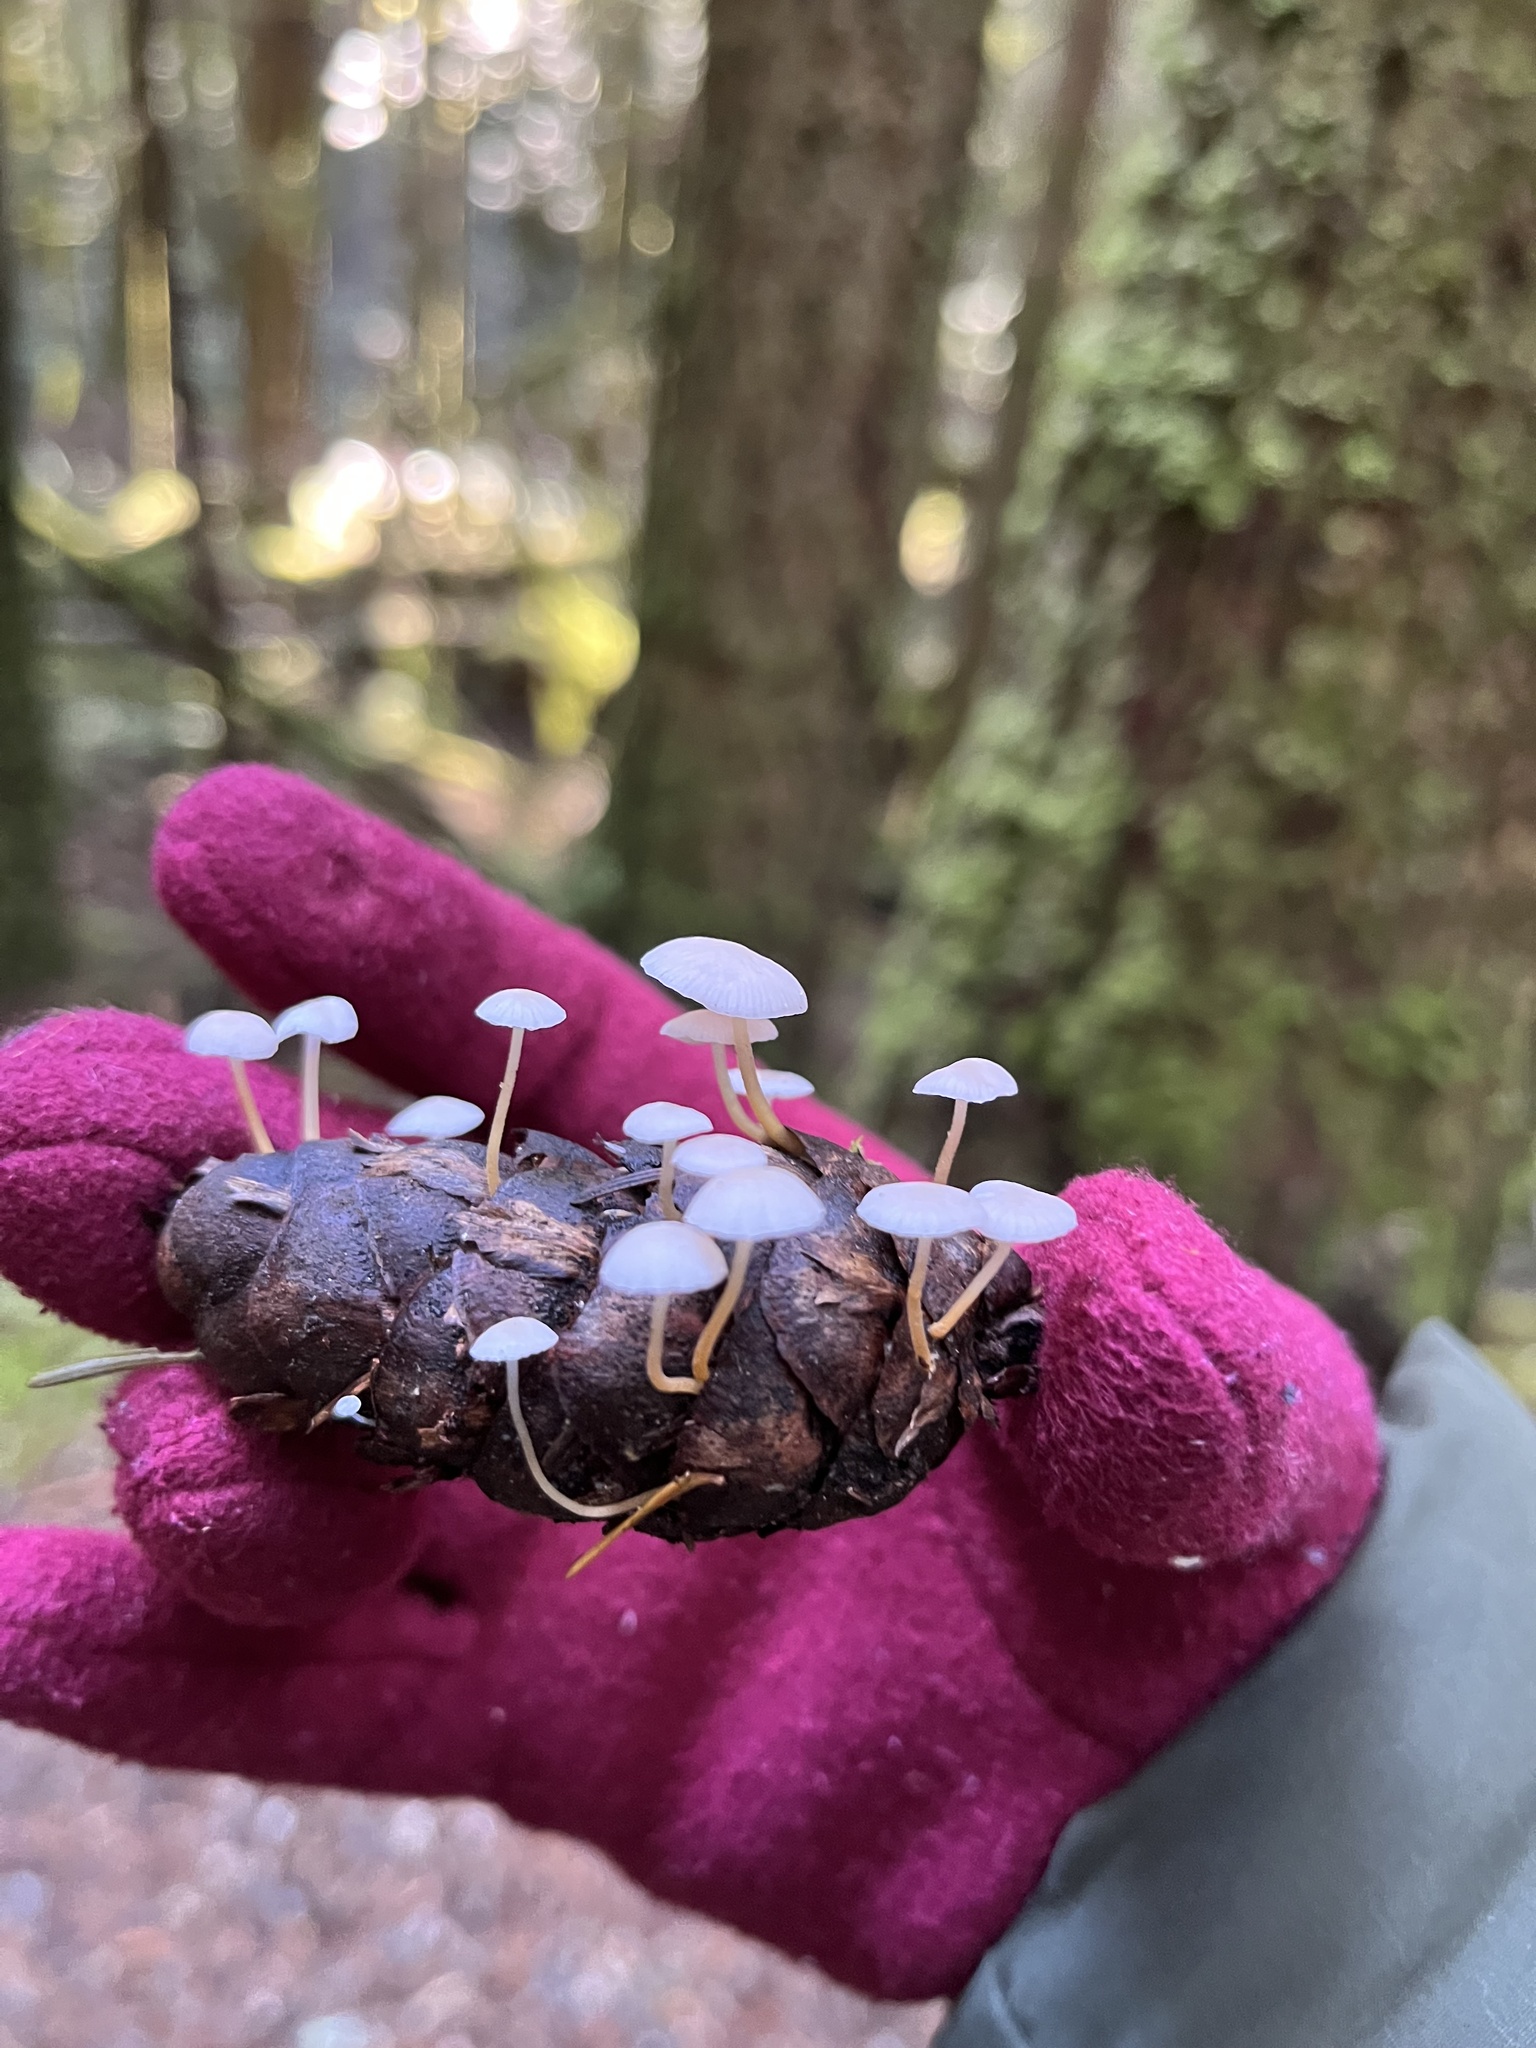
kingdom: Fungi
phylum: Basidiomycota
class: Agaricomycetes
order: Agaricales
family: Physalacriaceae
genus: Strobilurus
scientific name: Strobilurus trullisatus
